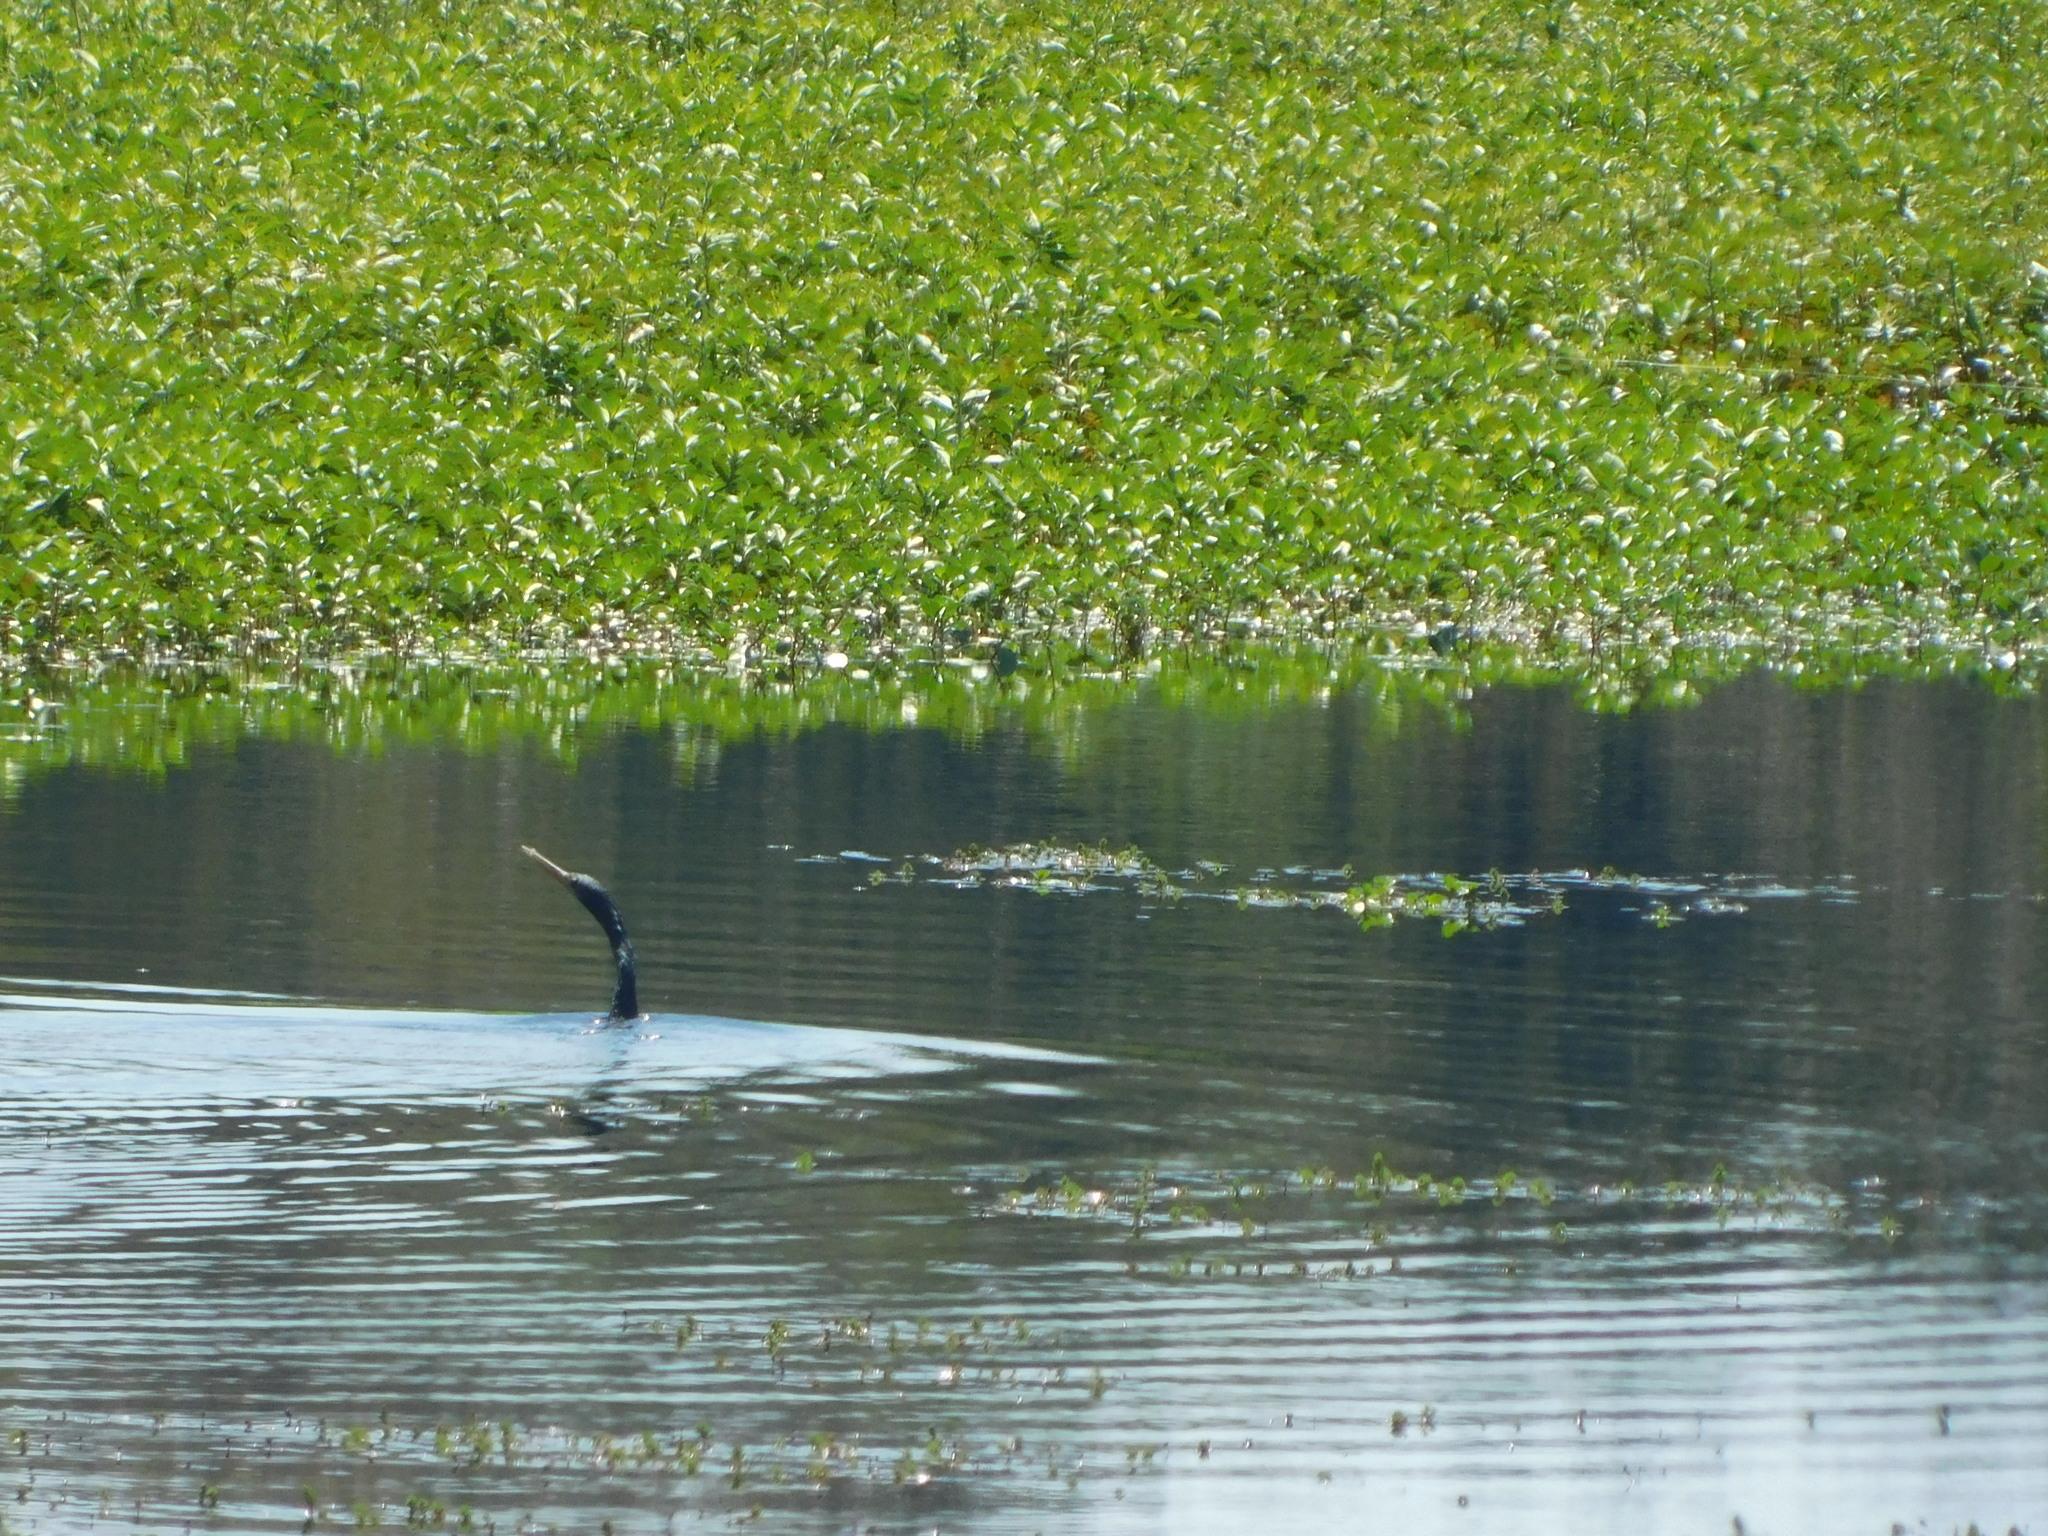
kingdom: Animalia
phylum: Chordata
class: Aves
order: Suliformes
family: Anhingidae
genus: Anhinga
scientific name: Anhinga anhinga
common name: Anhinga
